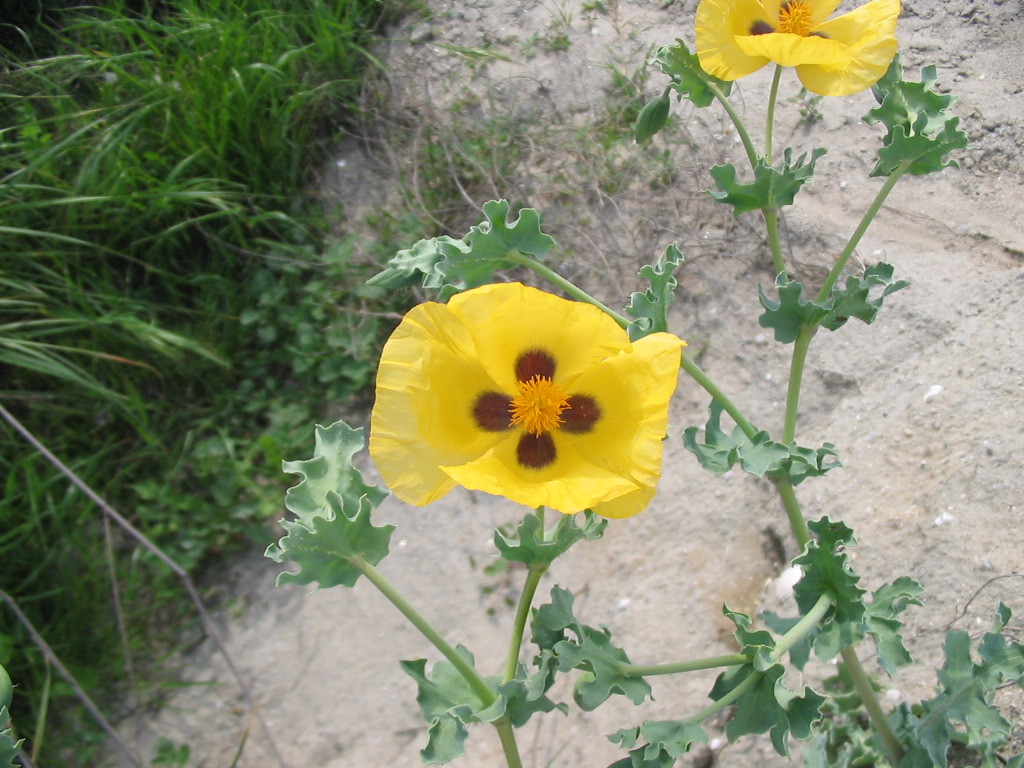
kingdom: Plantae
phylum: Tracheophyta
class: Magnoliopsida
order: Ranunculales
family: Papaveraceae
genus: Glaucium
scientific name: Glaucium flavum
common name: Yellow horned-poppy
